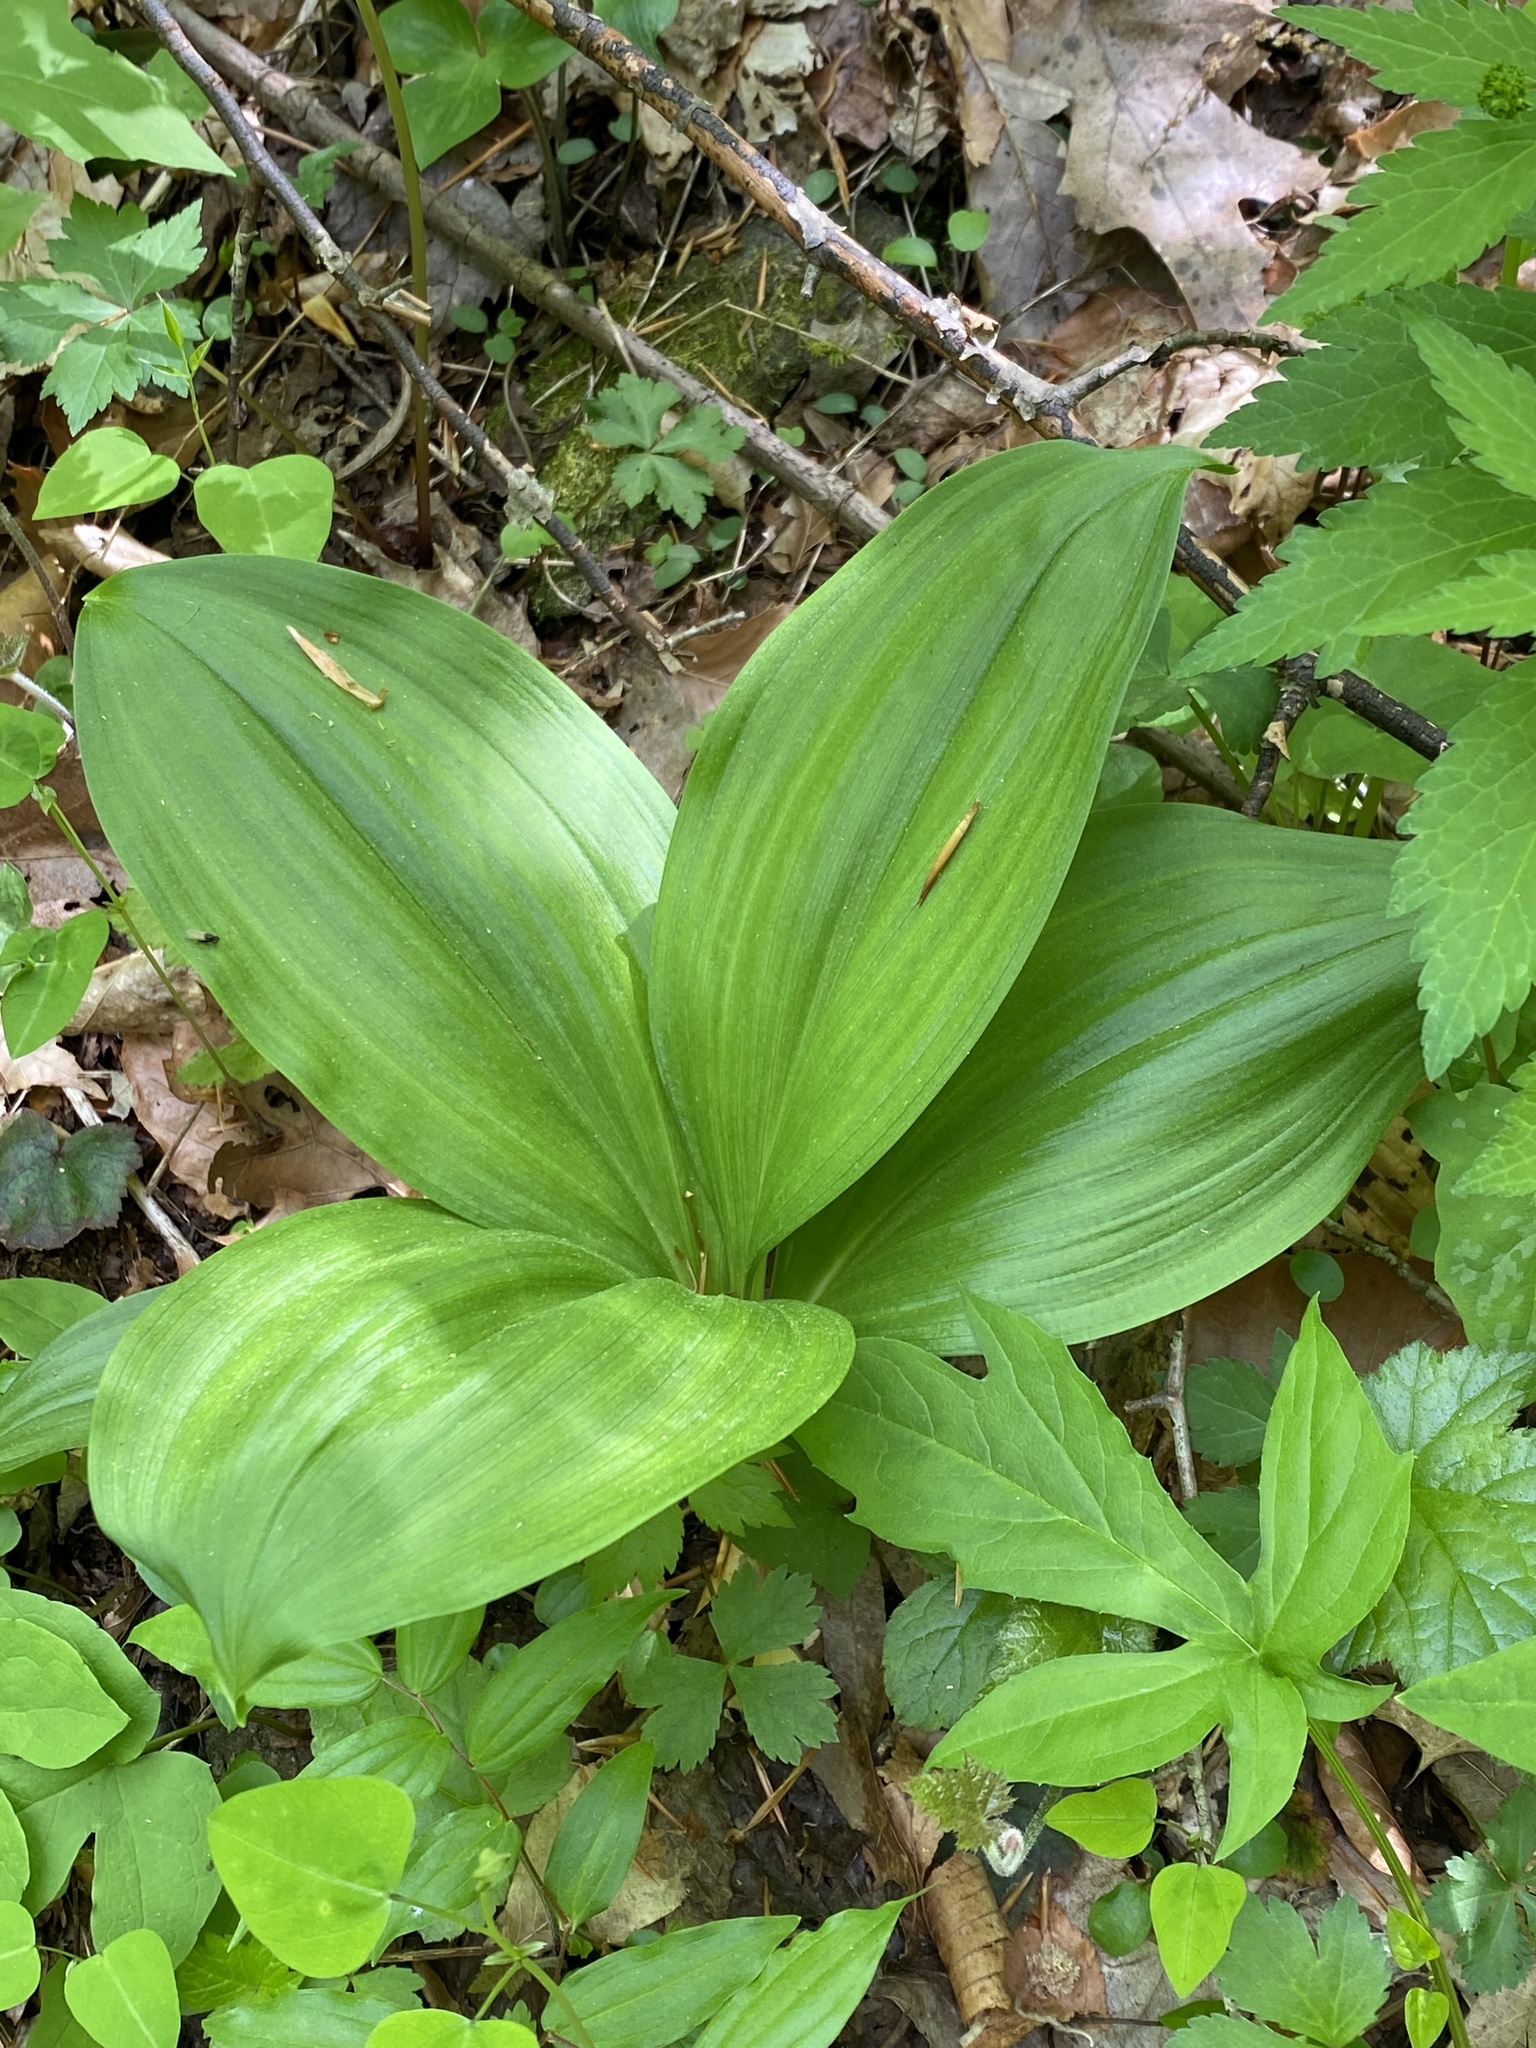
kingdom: Plantae
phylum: Tracheophyta
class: Liliopsida
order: Liliales
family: Melanthiaceae
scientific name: Melanthiaceae
